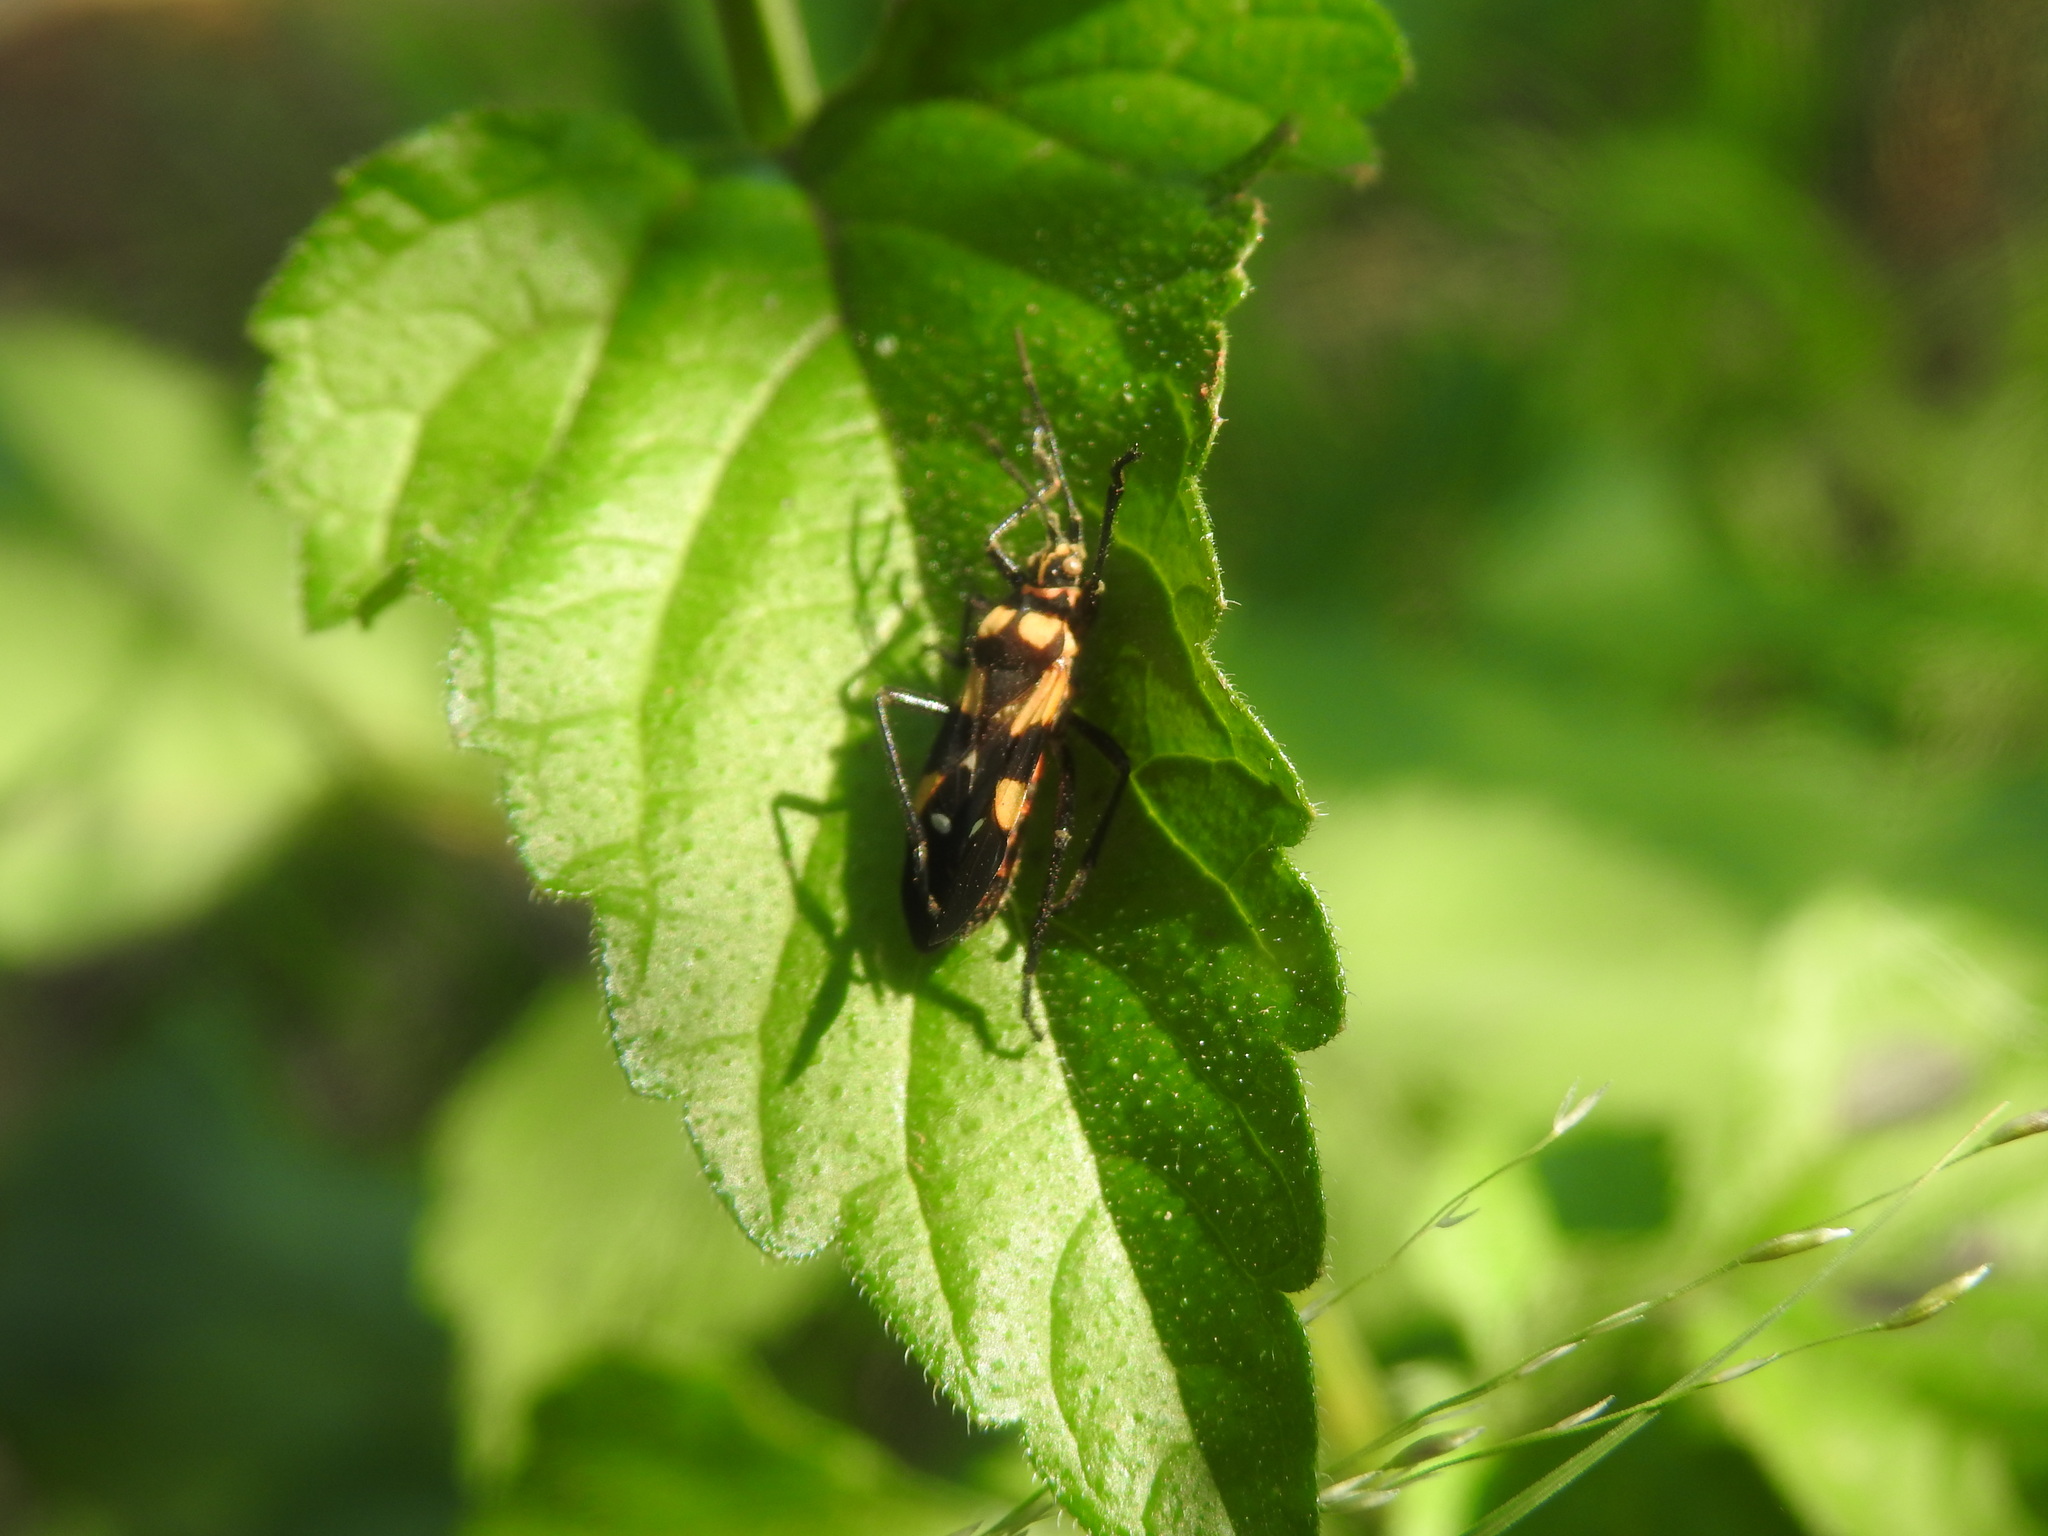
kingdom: Animalia
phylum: Arthropoda
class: Insecta
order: Hemiptera
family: Lygaeidae
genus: Oncopeltus
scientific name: Oncopeltus famelicus
